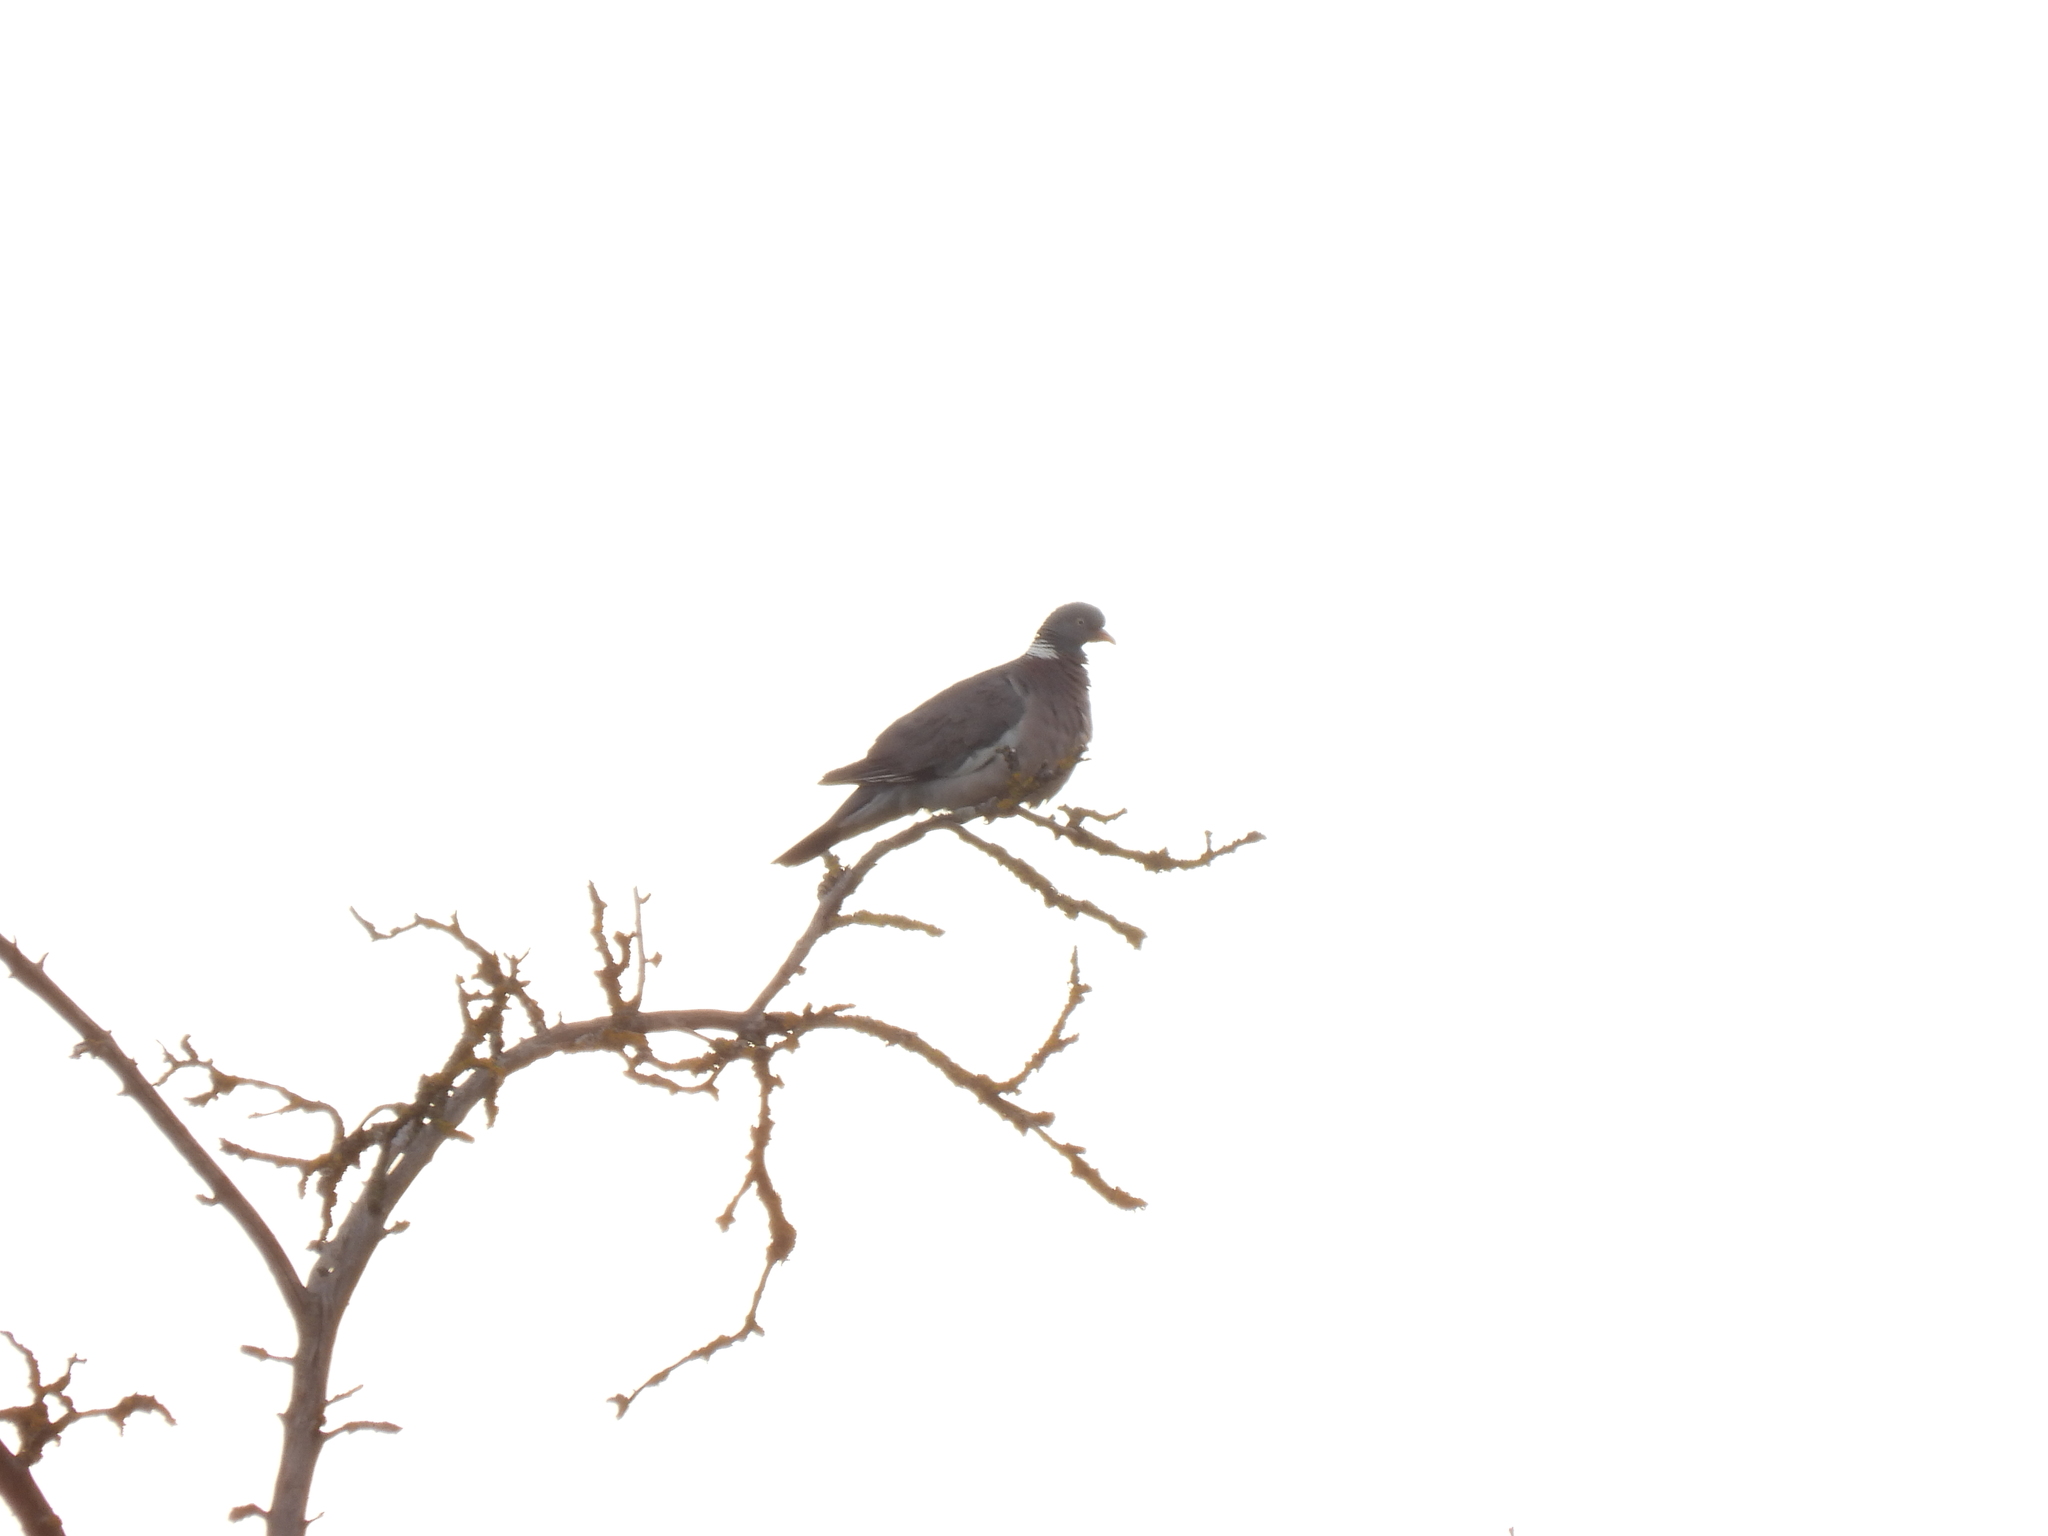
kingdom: Animalia
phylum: Chordata
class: Aves
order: Columbiformes
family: Columbidae
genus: Columba
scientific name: Columba palumbus
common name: Common wood pigeon
